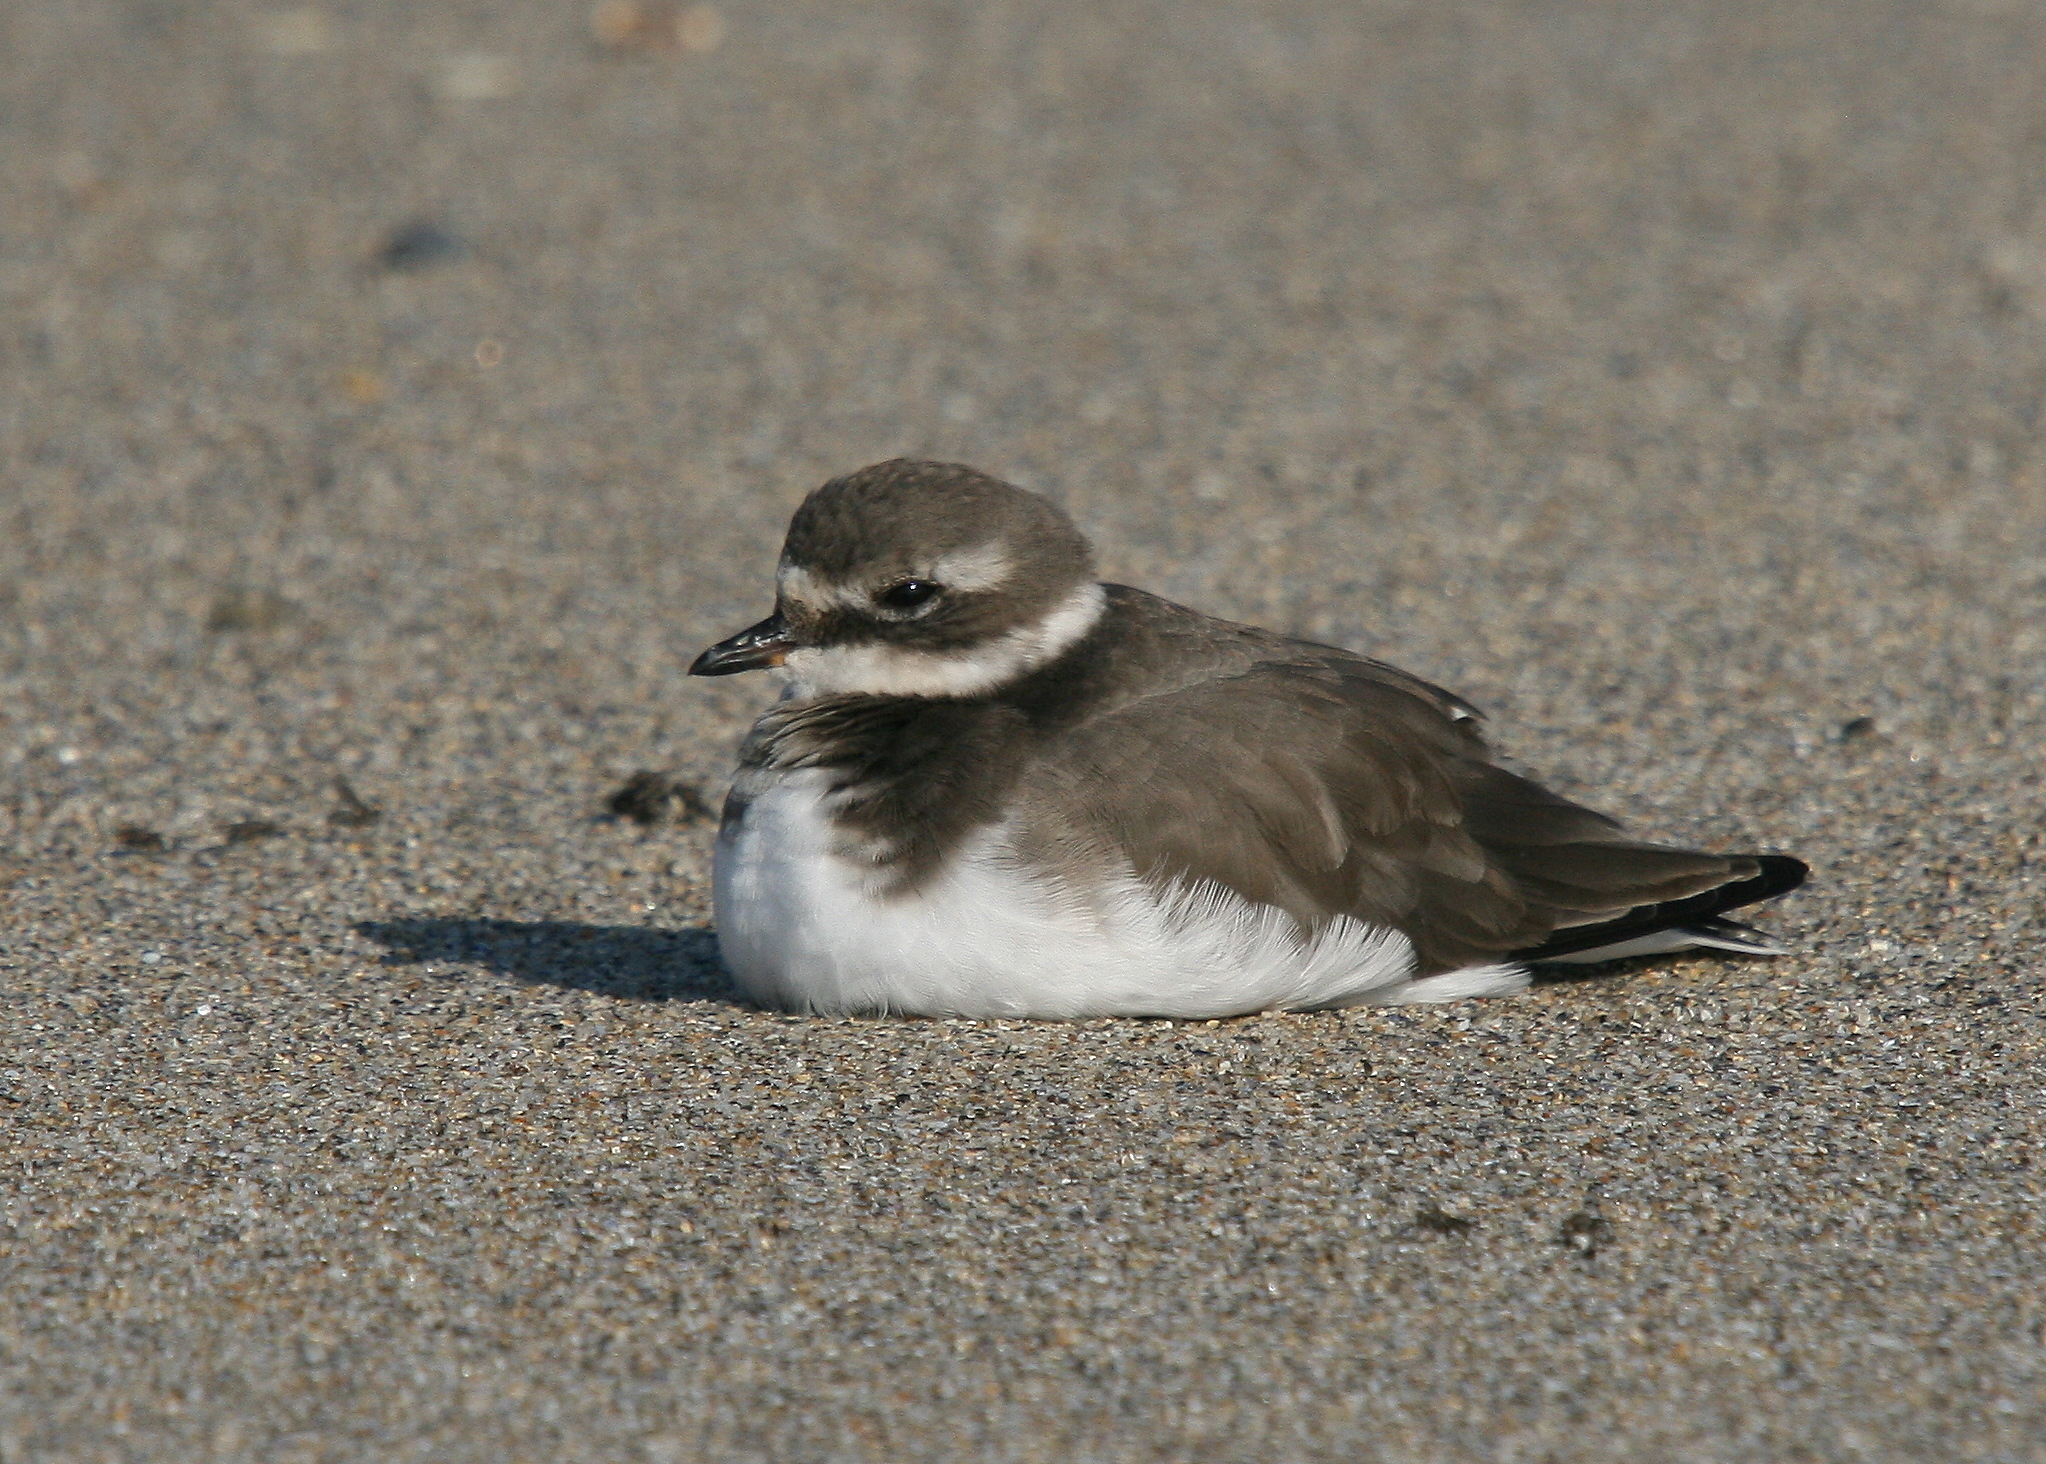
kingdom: Animalia
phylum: Chordata
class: Aves
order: Charadriiformes
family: Charadriidae
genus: Charadrius
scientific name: Charadrius hiaticula
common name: Common ringed plover
